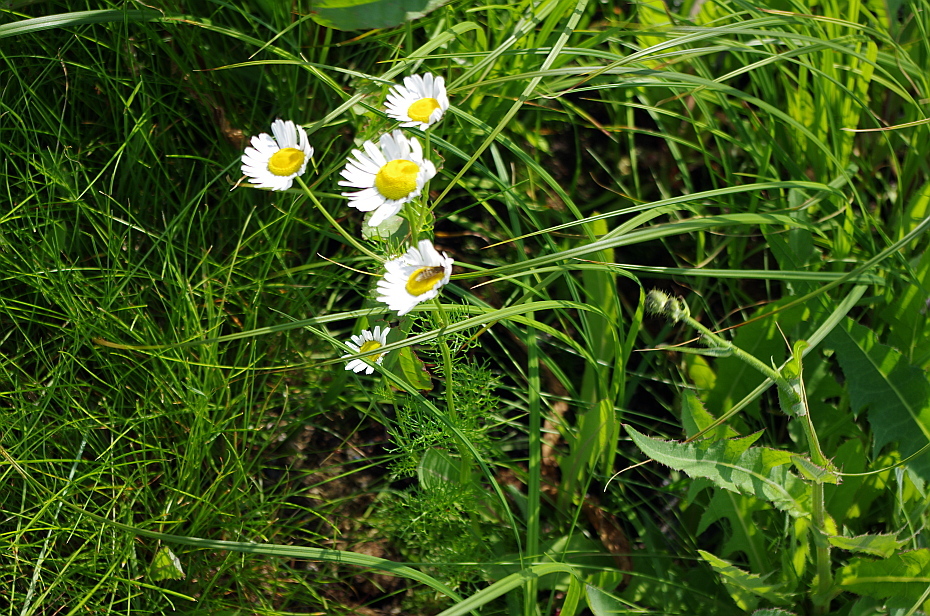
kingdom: Plantae
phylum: Tracheophyta
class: Magnoliopsida
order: Asterales
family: Asteraceae
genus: Tripleurospermum
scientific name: Tripleurospermum maritimum
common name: Sea mayweed
